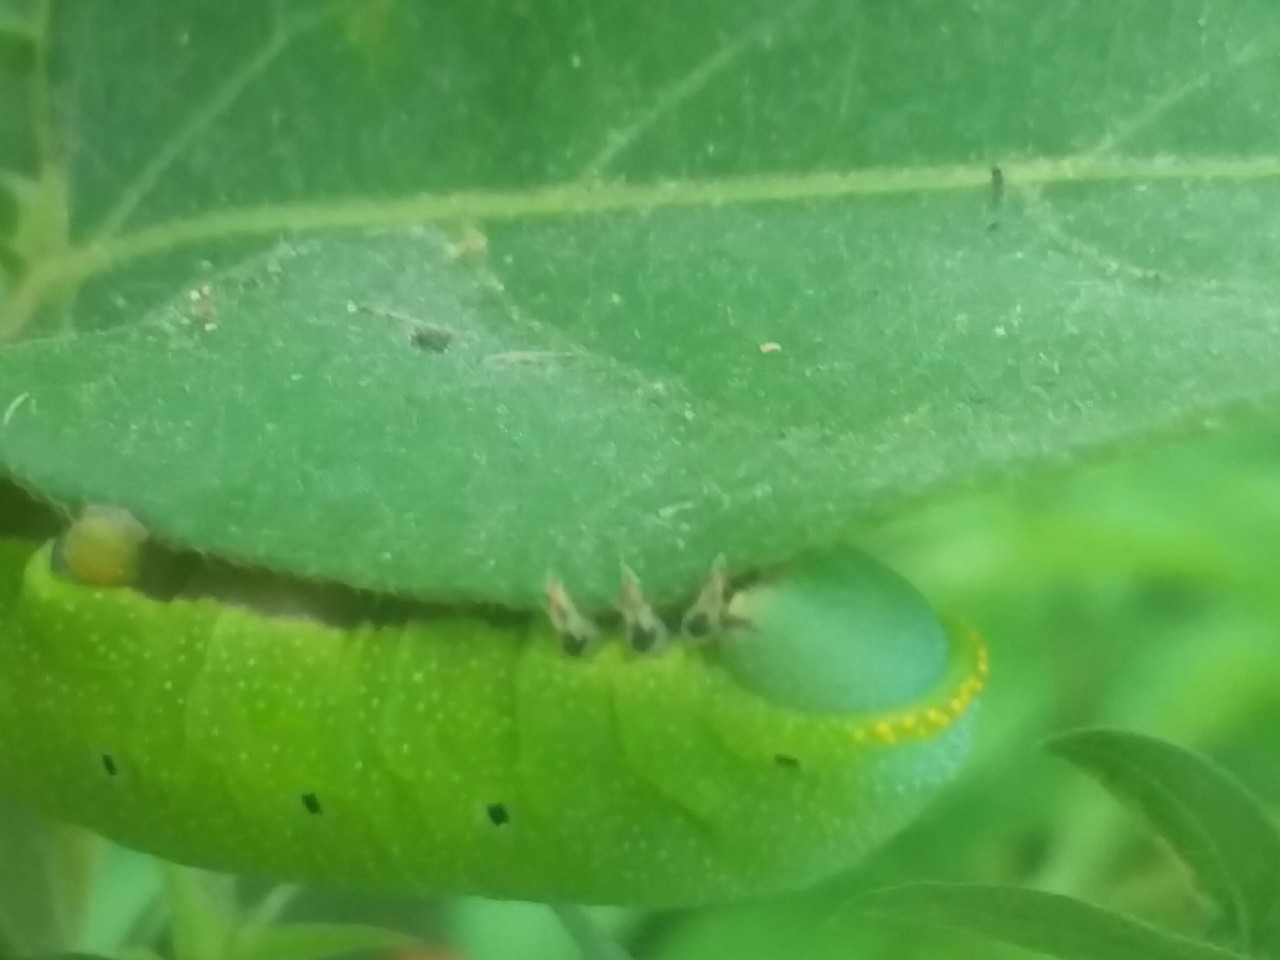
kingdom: Animalia
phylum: Arthropoda
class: Insecta
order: Lepidoptera
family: Sphingidae
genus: Hemaris
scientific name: Hemaris diffinis
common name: Bumblebee moth
